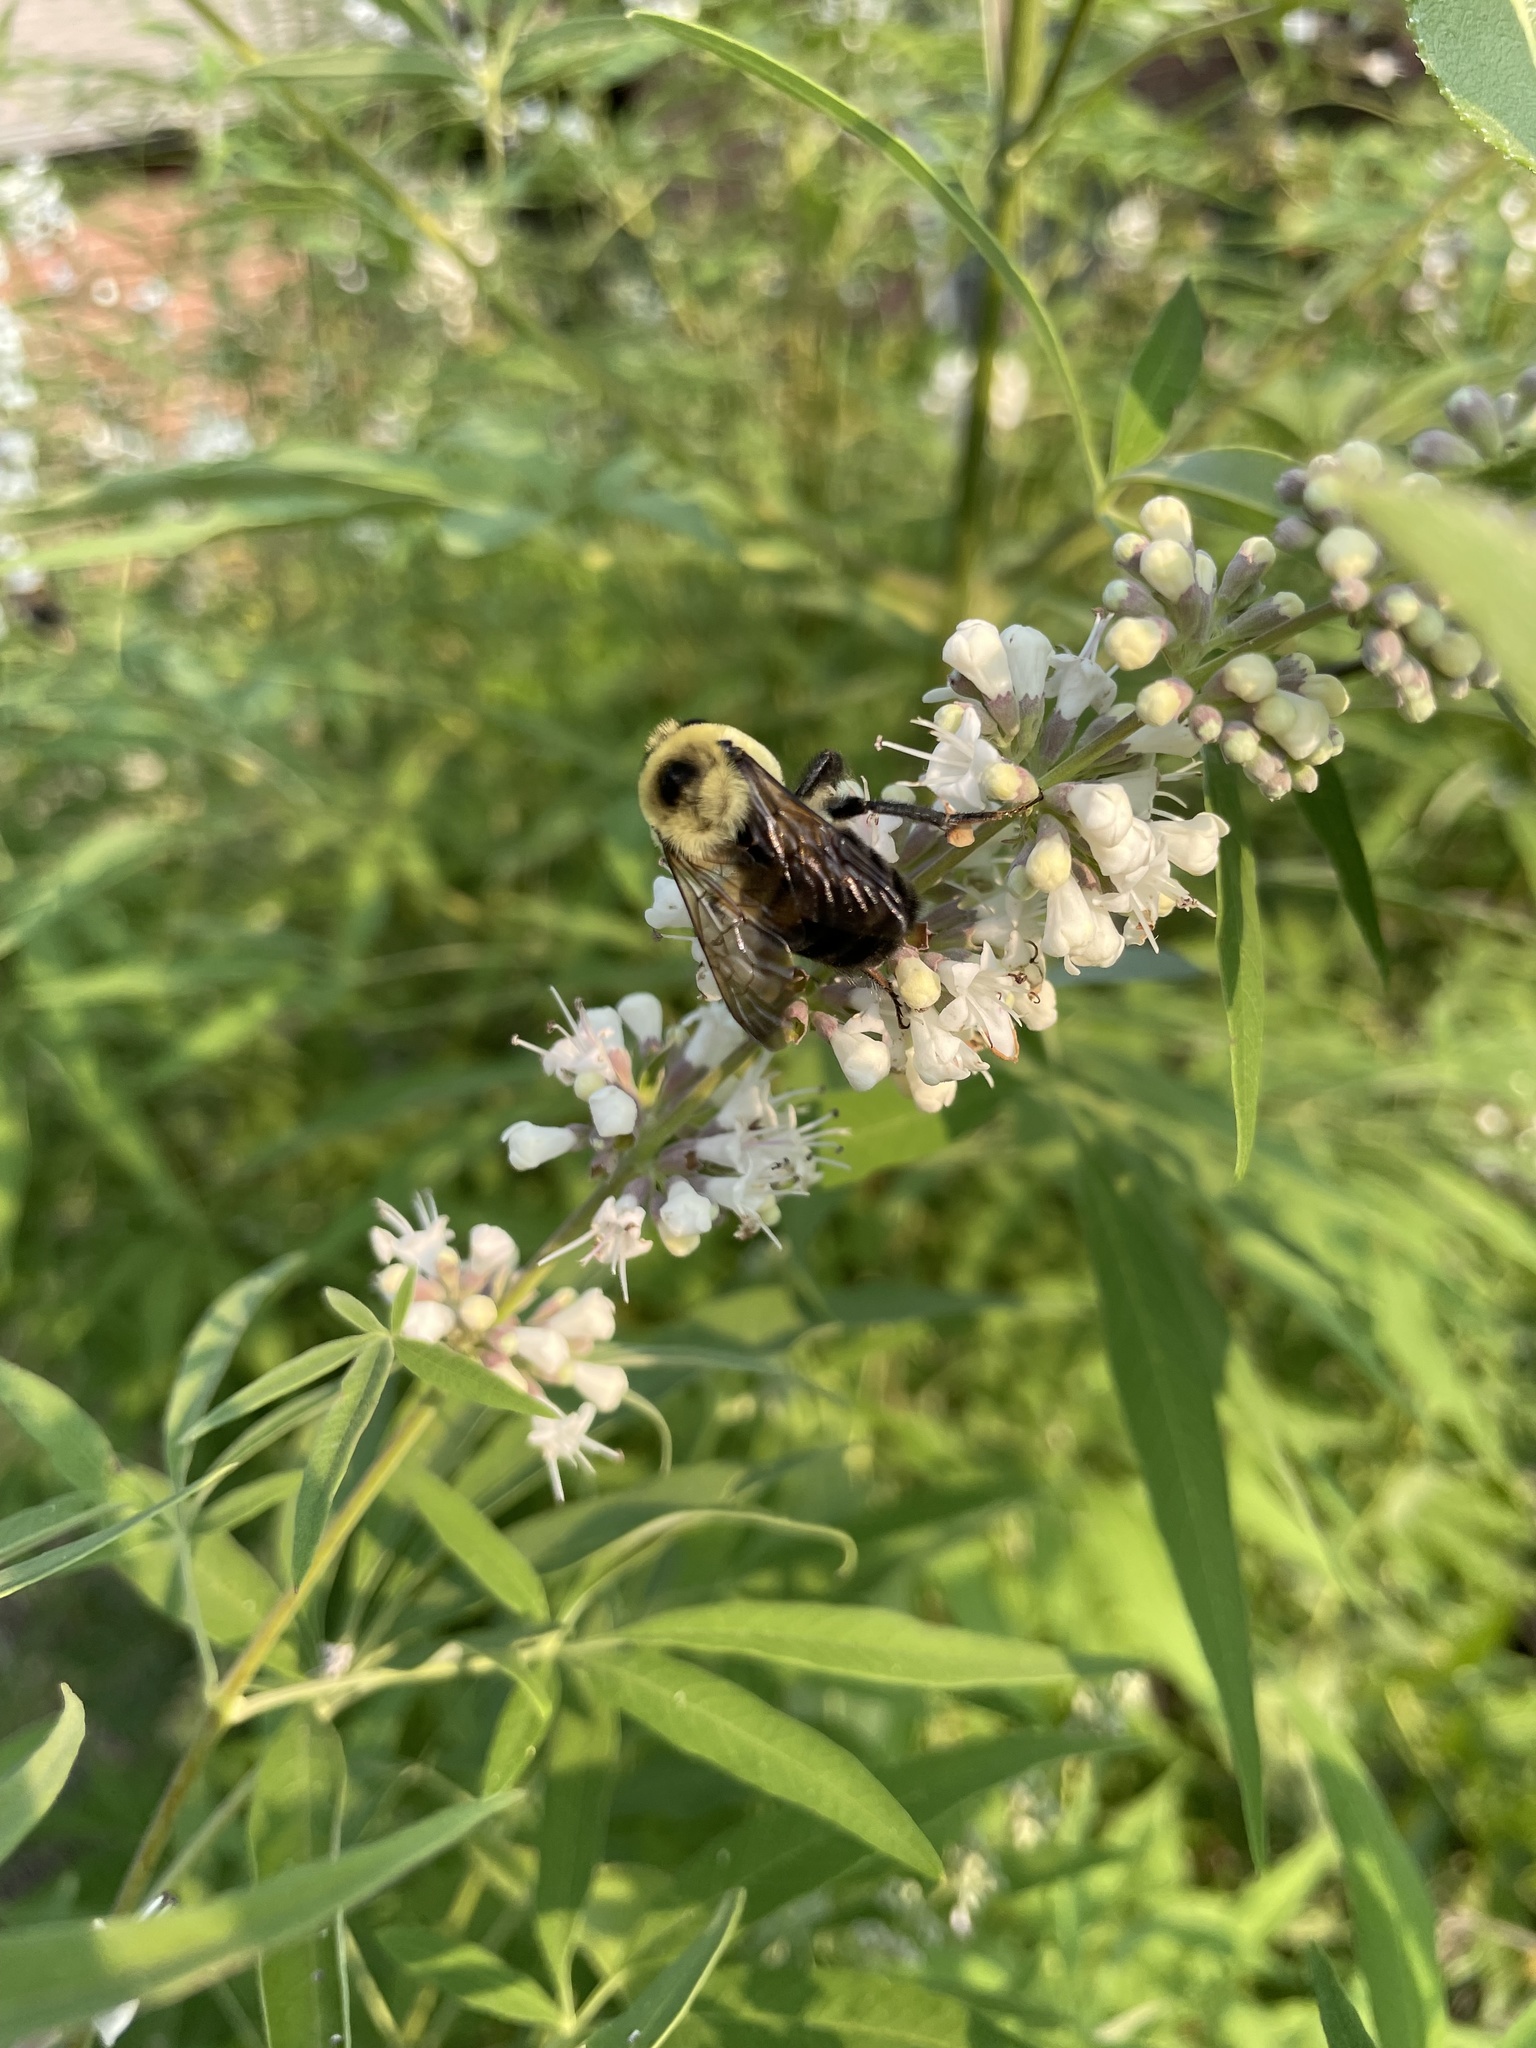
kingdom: Animalia
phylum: Arthropoda
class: Insecta
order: Hymenoptera
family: Apidae
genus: Bombus
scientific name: Bombus griseocollis
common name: Brown-belted bumble bee
